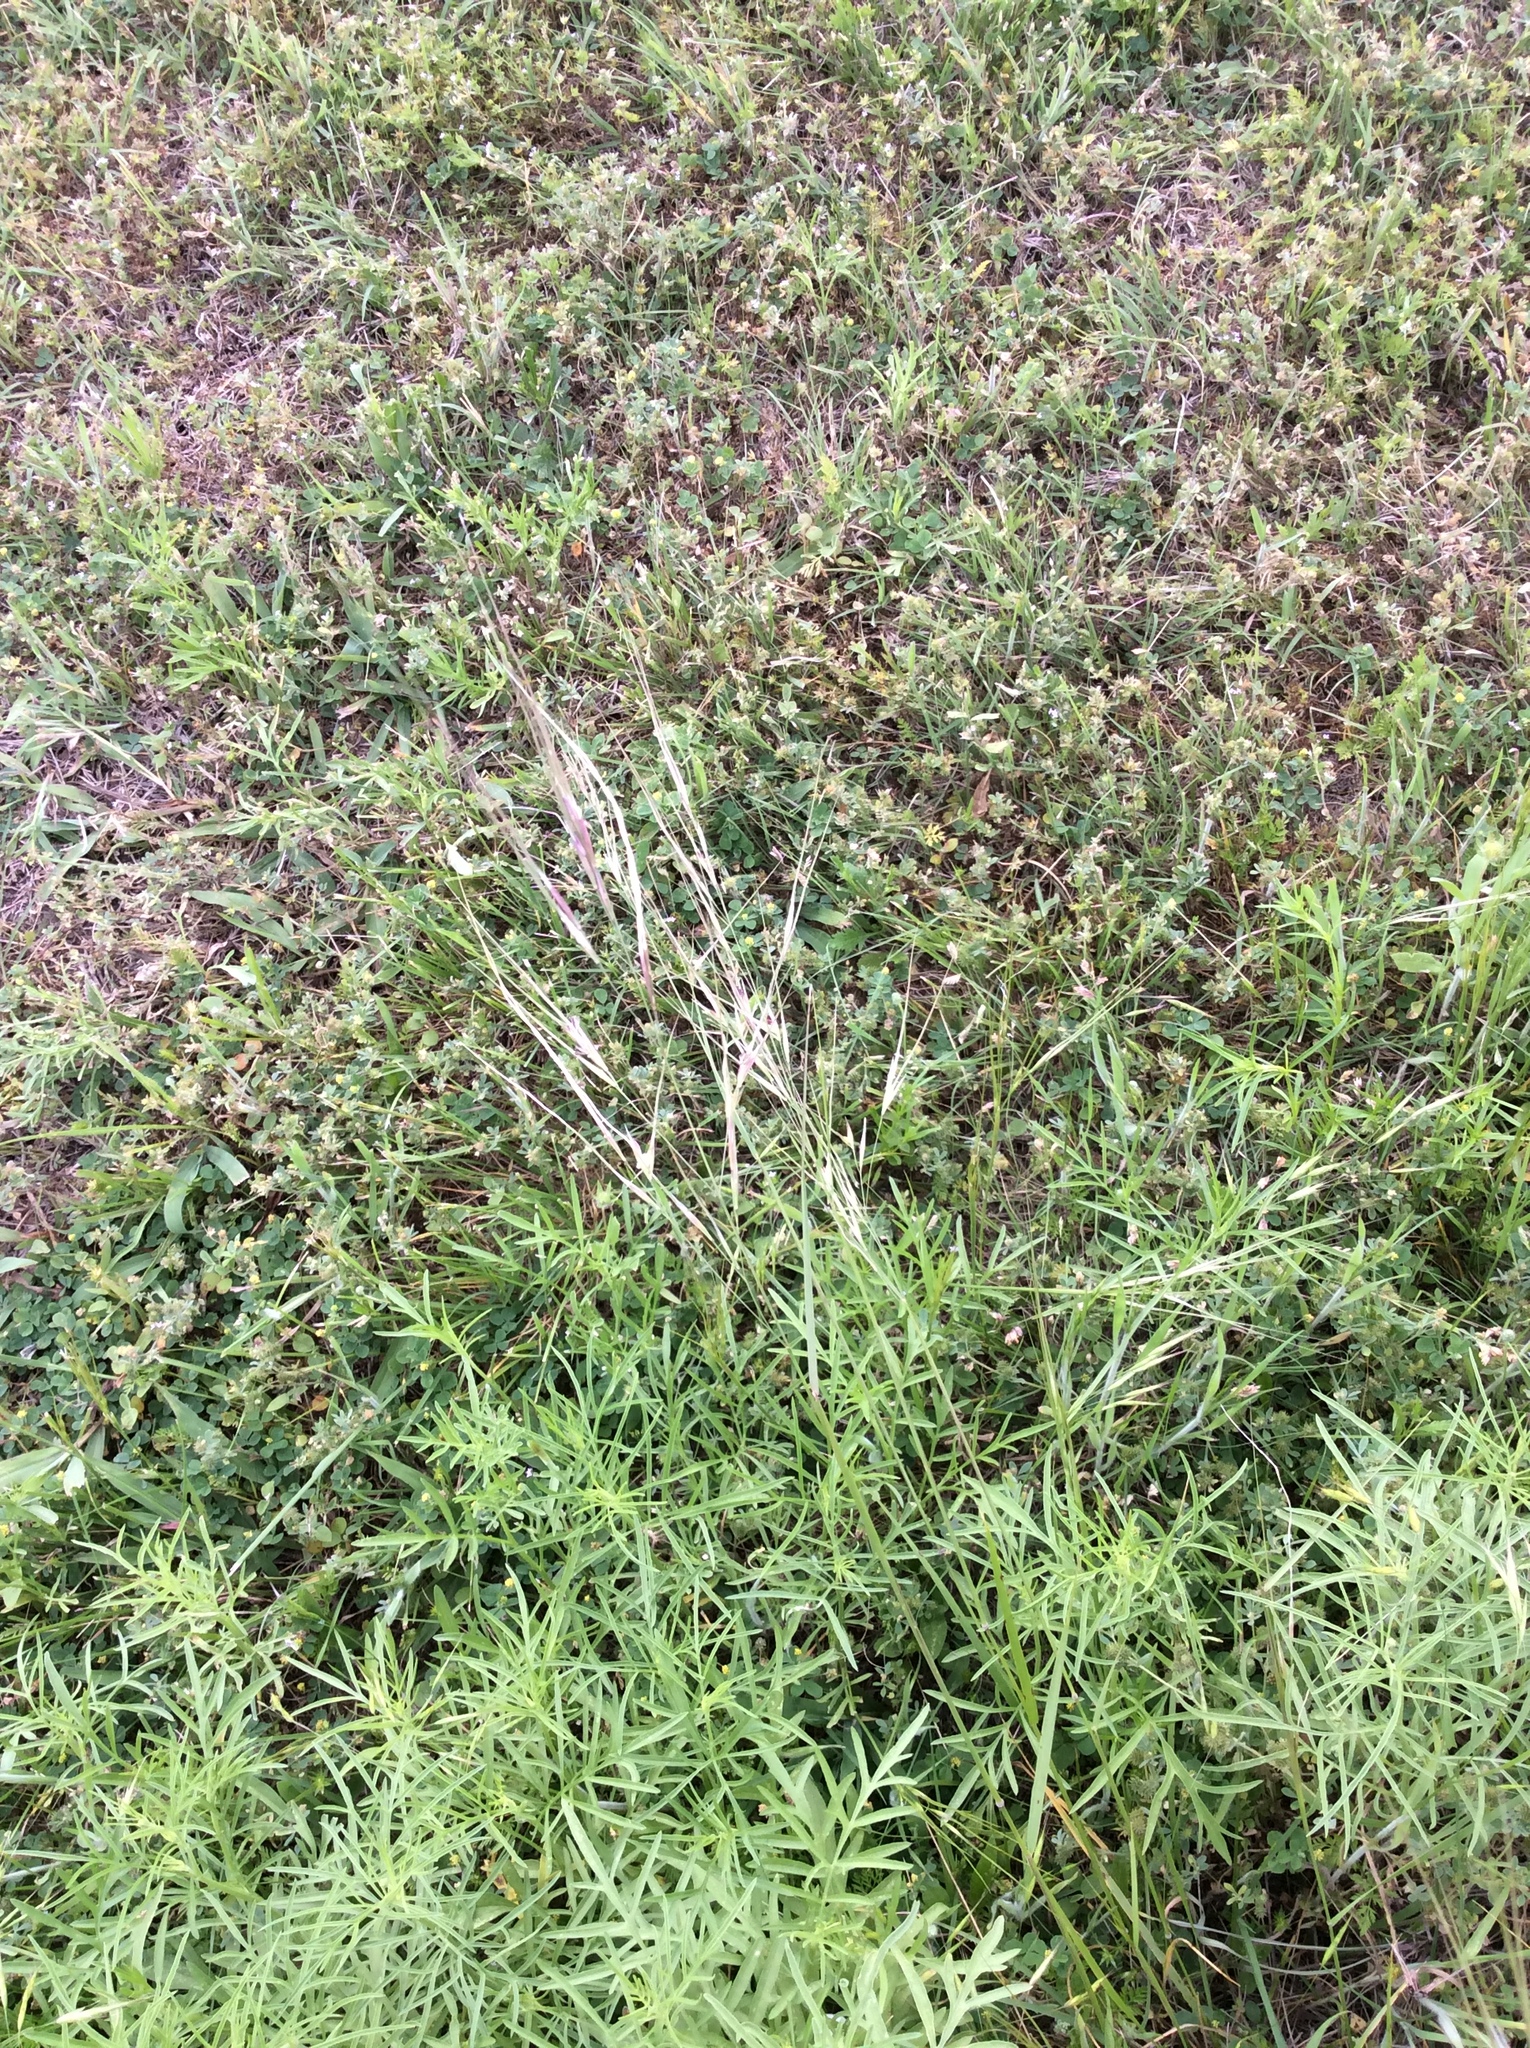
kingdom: Plantae
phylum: Tracheophyta
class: Liliopsida
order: Poales
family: Poaceae
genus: Nassella
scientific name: Nassella leucotricha
